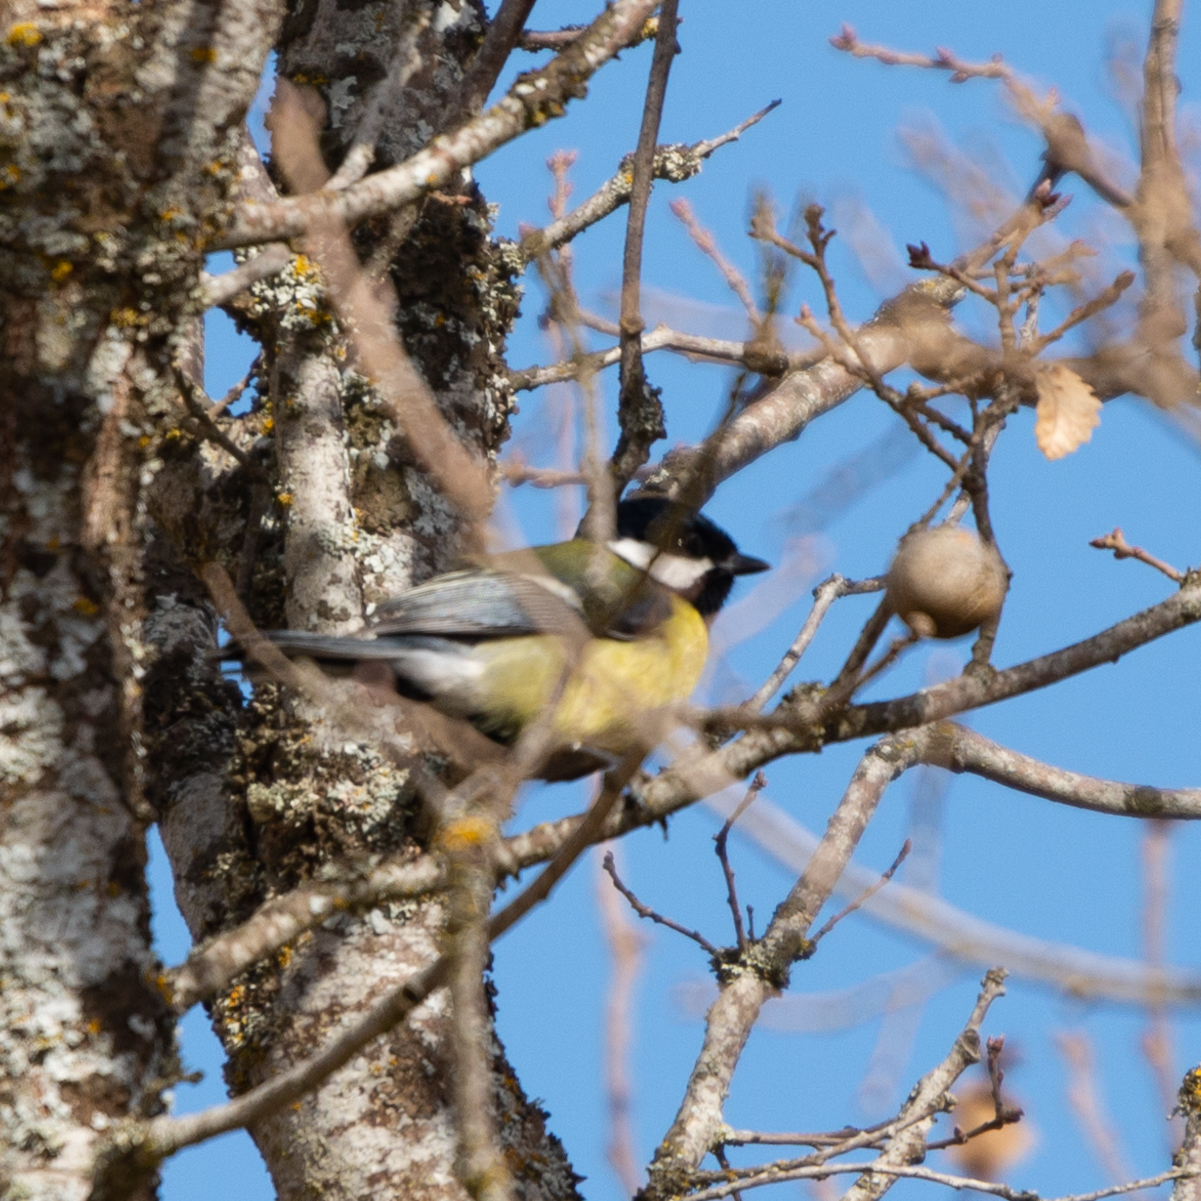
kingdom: Animalia
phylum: Chordata
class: Aves
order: Passeriformes
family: Paridae
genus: Parus
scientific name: Parus major
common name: Great tit
